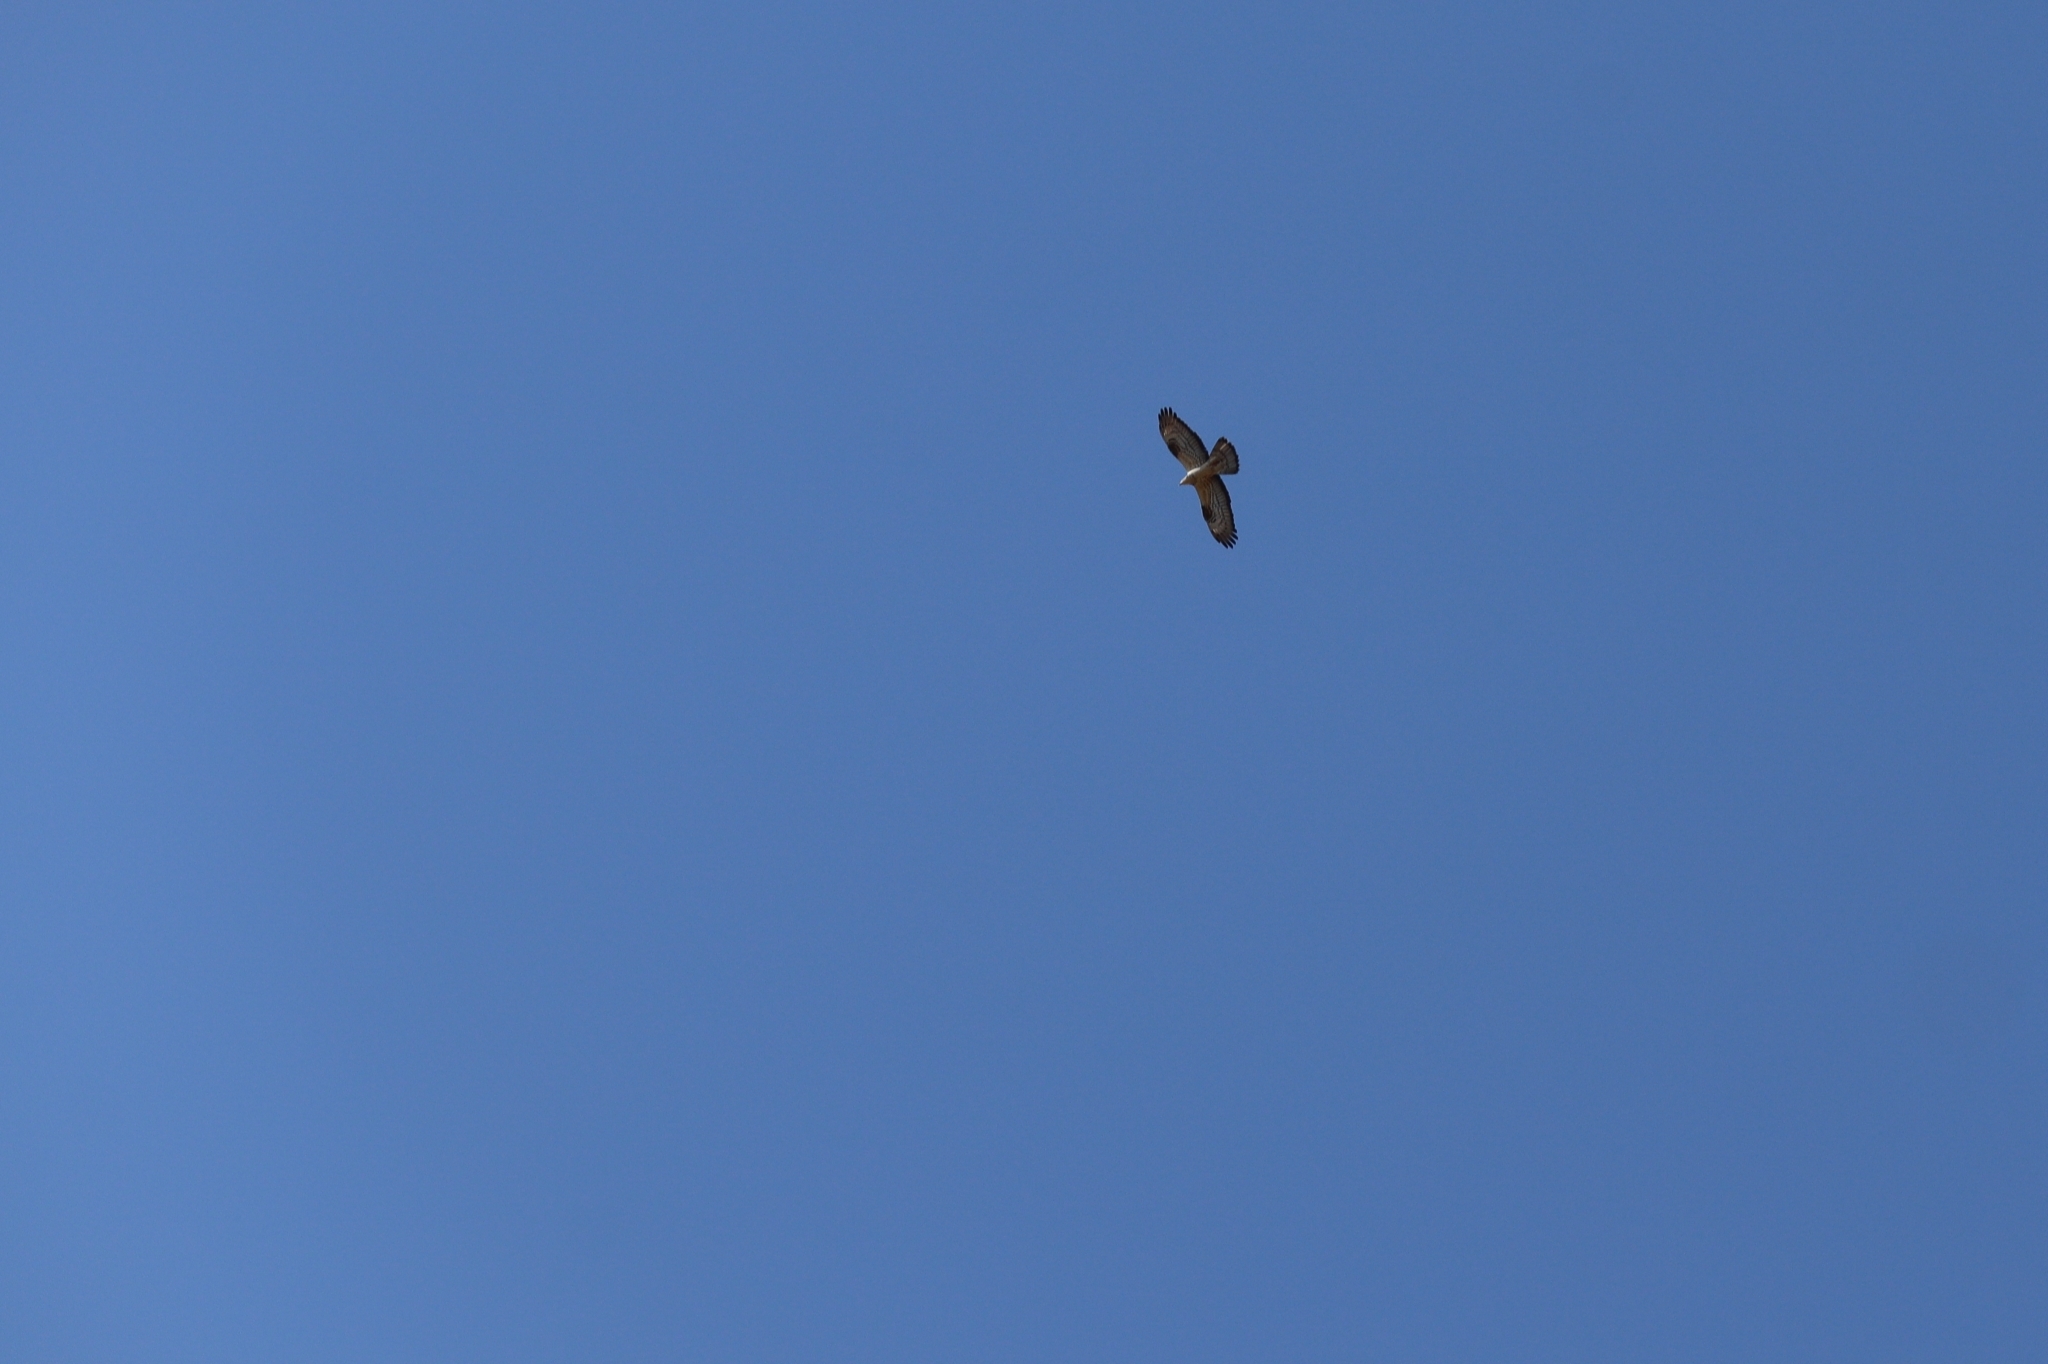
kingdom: Animalia
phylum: Chordata
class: Aves
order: Accipitriformes
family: Accipitridae
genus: Pernis
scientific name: Pernis apivorus
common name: European honey buzzard
